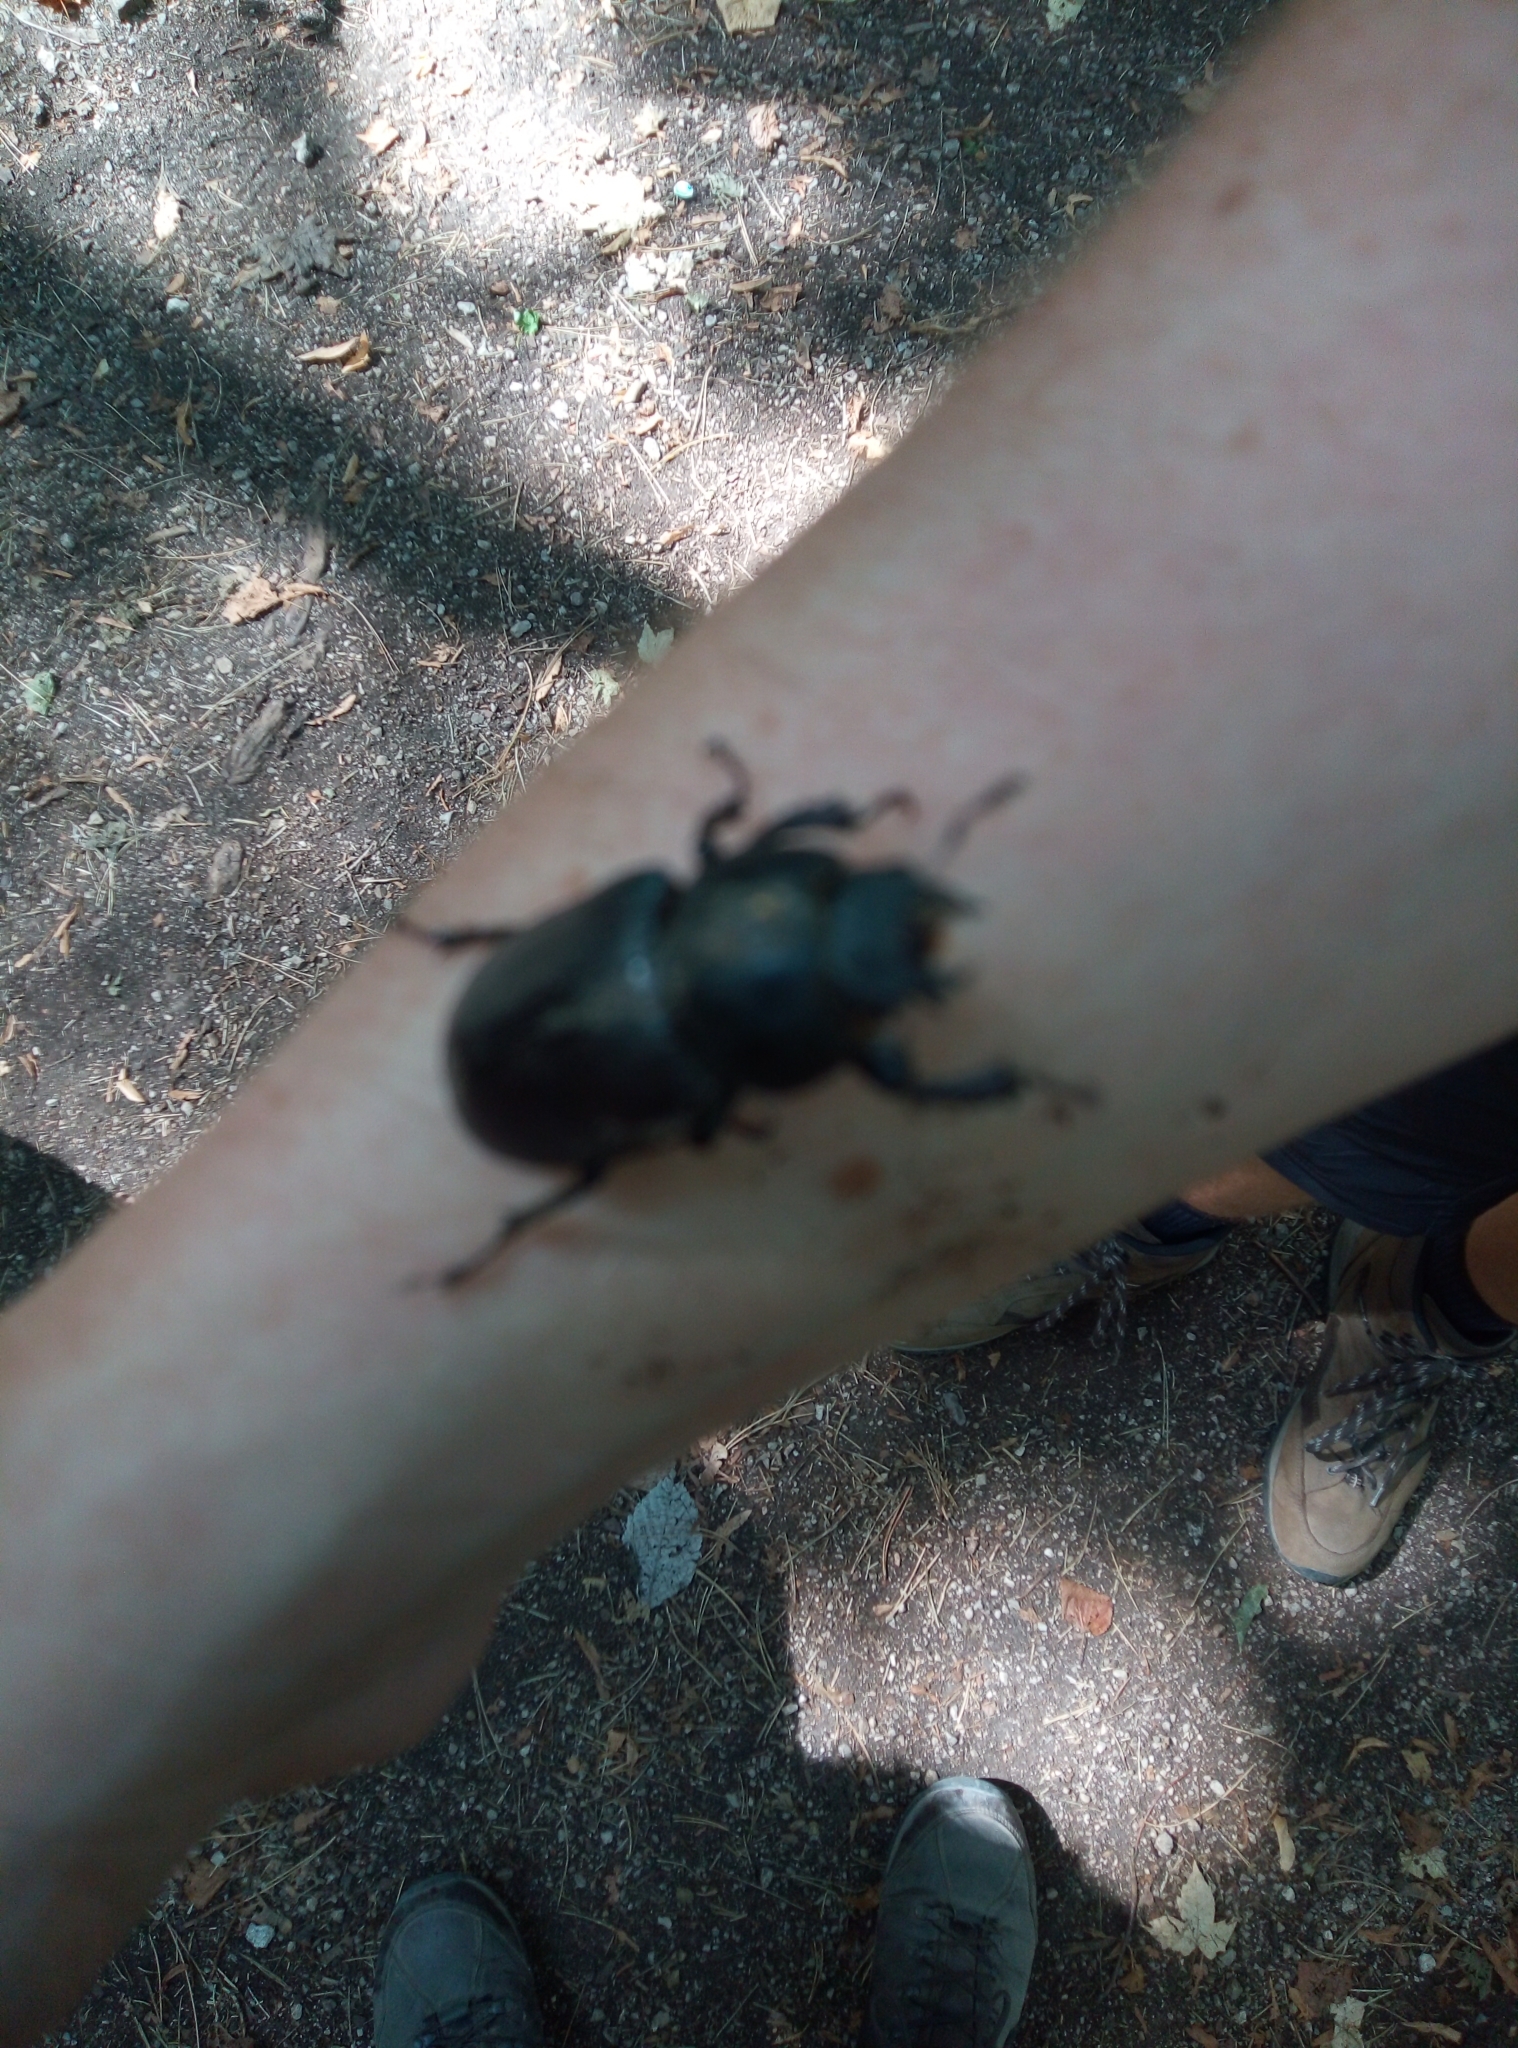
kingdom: Animalia
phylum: Arthropoda
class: Insecta
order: Coleoptera
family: Lucanidae
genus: Lucanus
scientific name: Lucanus cervus
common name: Stag beetle
